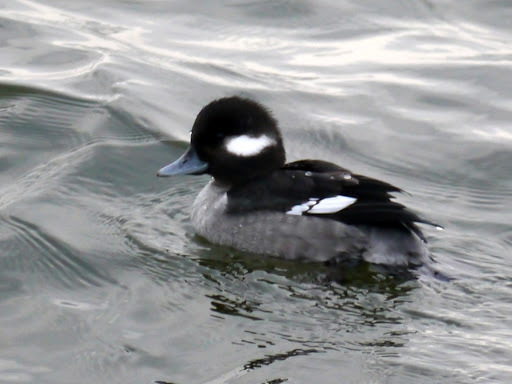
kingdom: Animalia
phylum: Chordata
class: Aves
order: Anseriformes
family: Anatidae
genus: Bucephala
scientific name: Bucephala albeola
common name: Bufflehead
